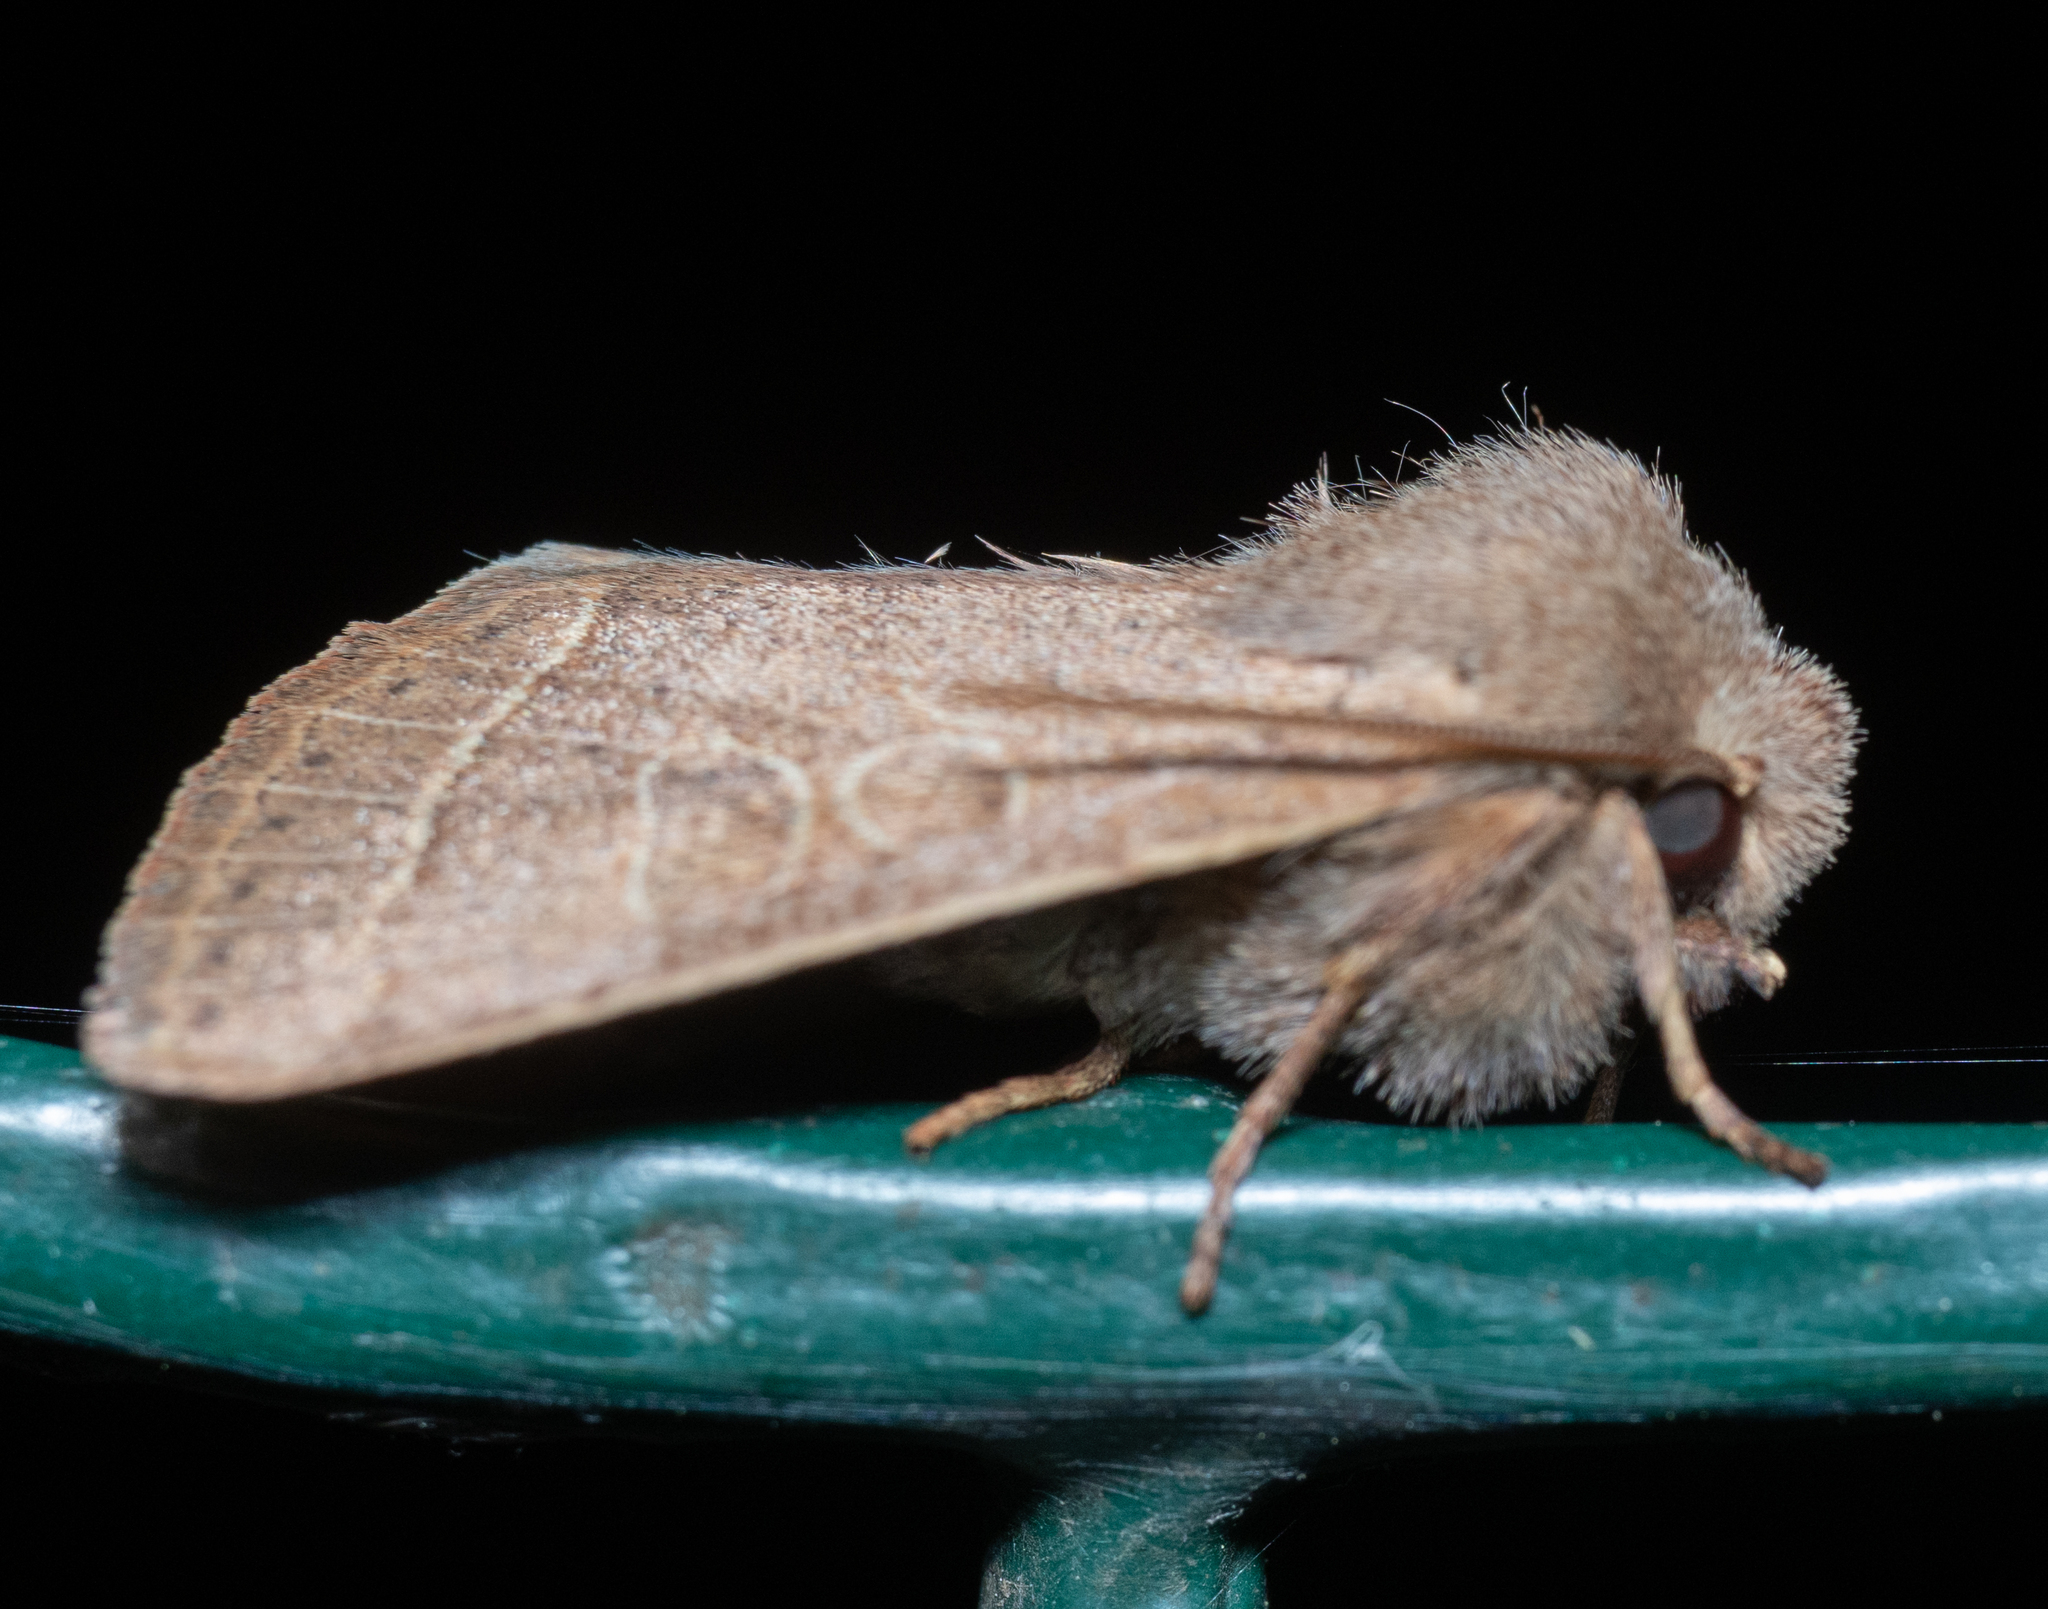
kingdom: Animalia
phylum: Arthropoda
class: Insecta
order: Lepidoptera
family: Noctuidae
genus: Orthosia
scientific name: Orthosia cerasi
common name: Common quaker
